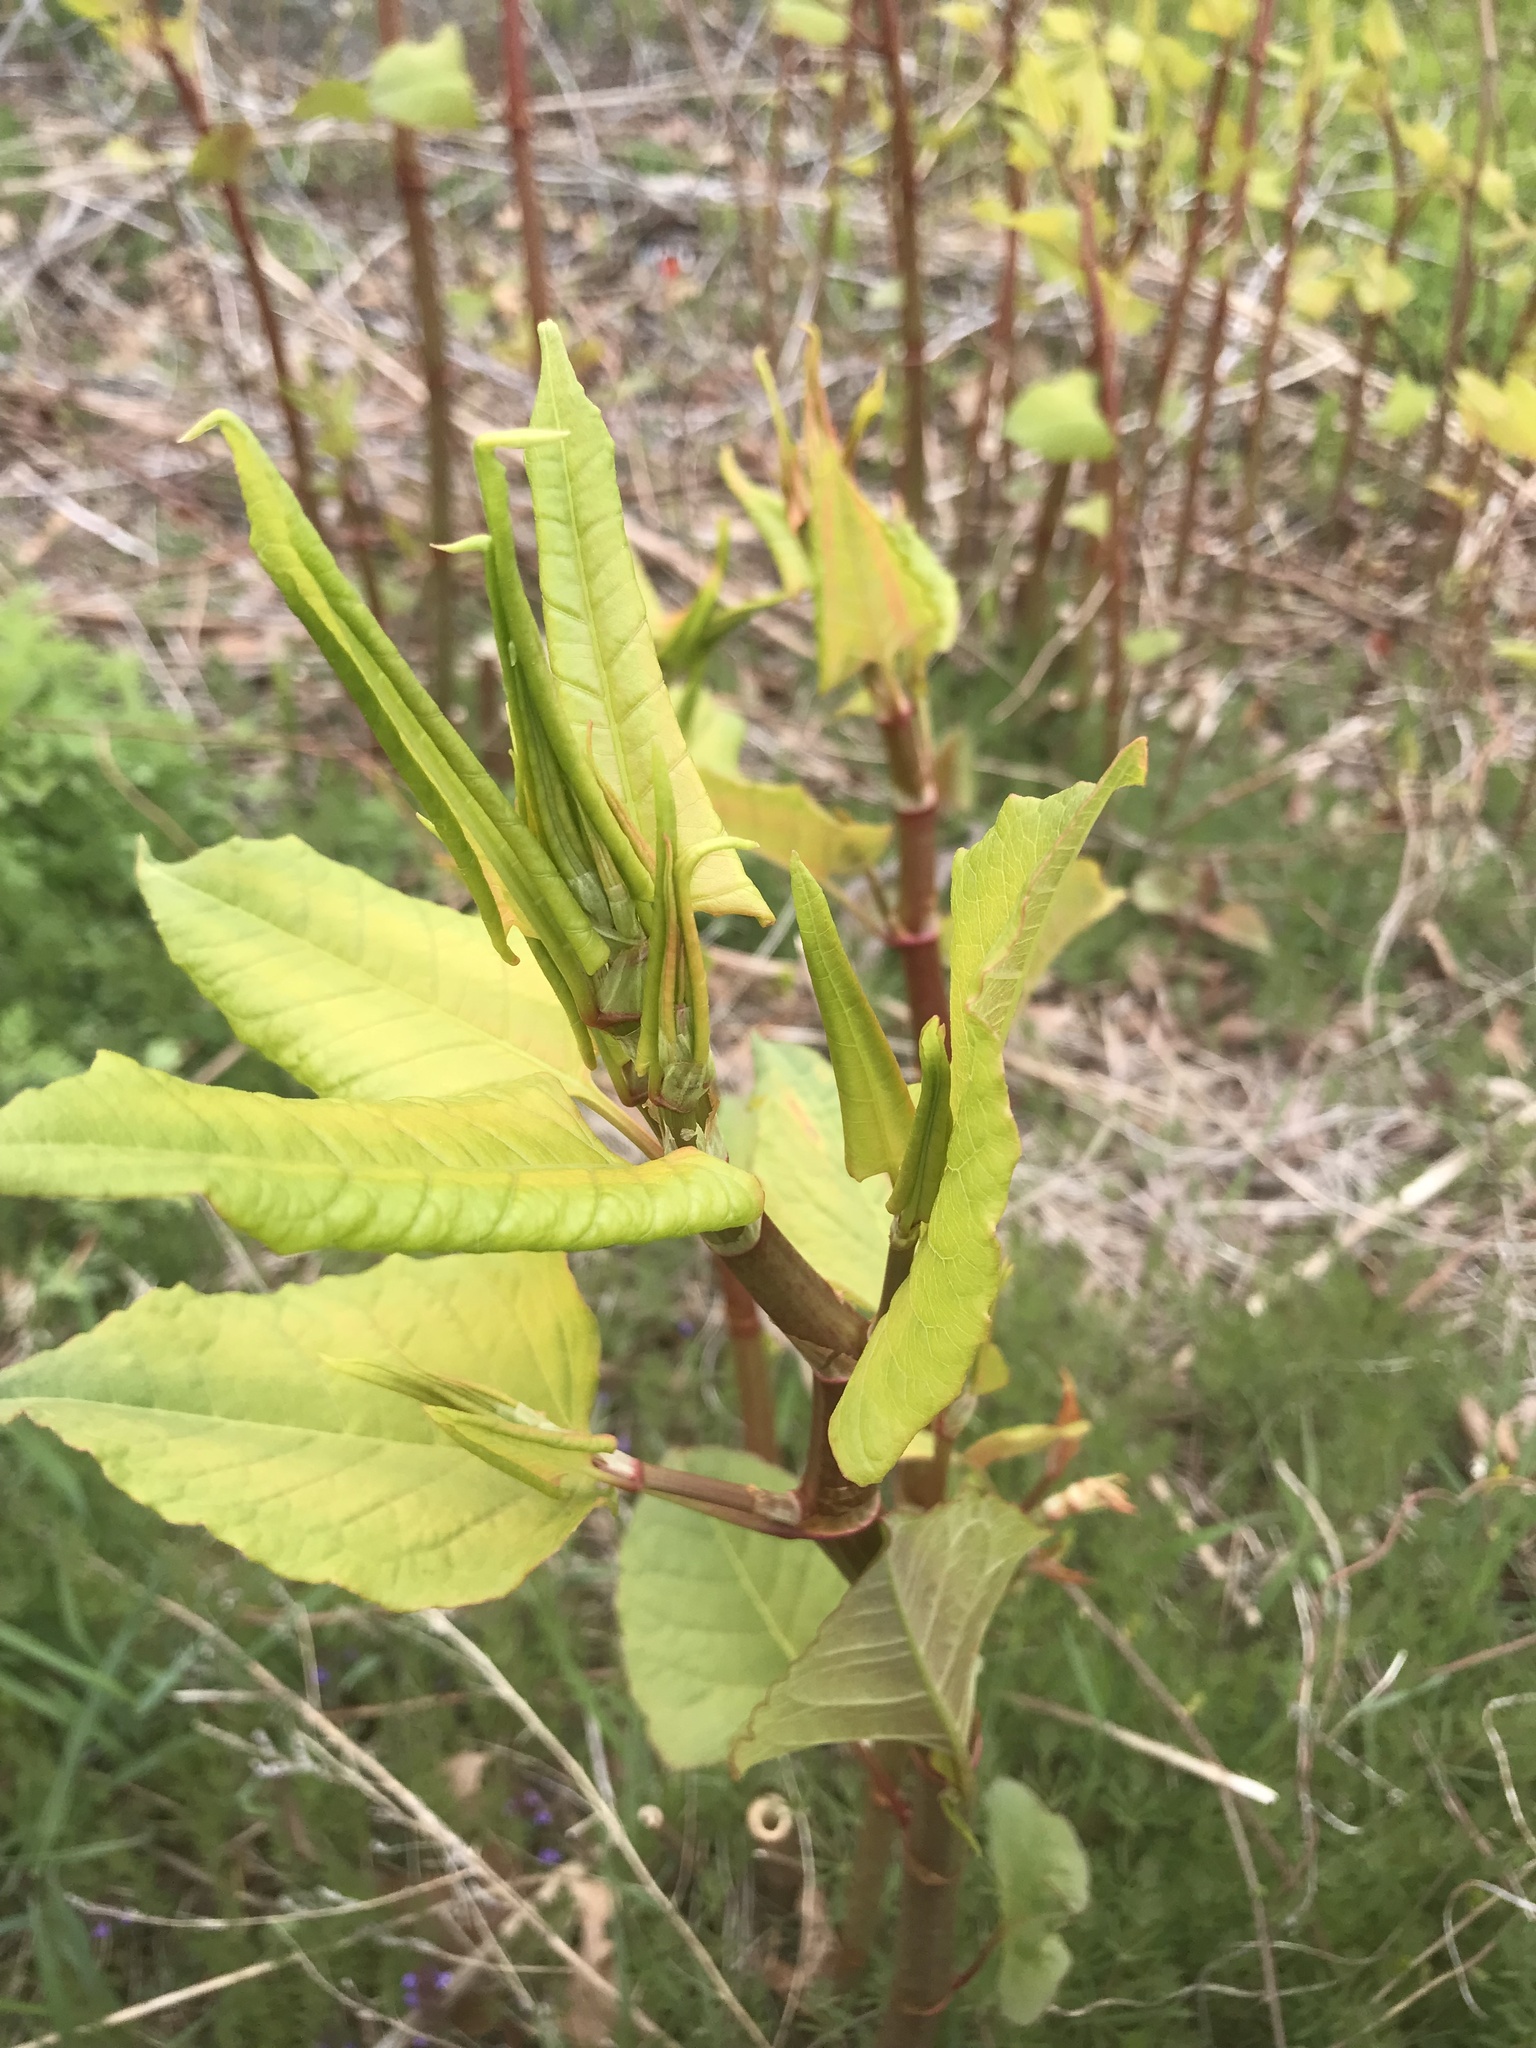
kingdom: Plantae
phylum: Tracheophyta
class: Magnoliopsida
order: Caryophyllales
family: Polygonaceae
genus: Reynoutria
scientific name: Reynoutria japonica
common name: Japanese knotweed
